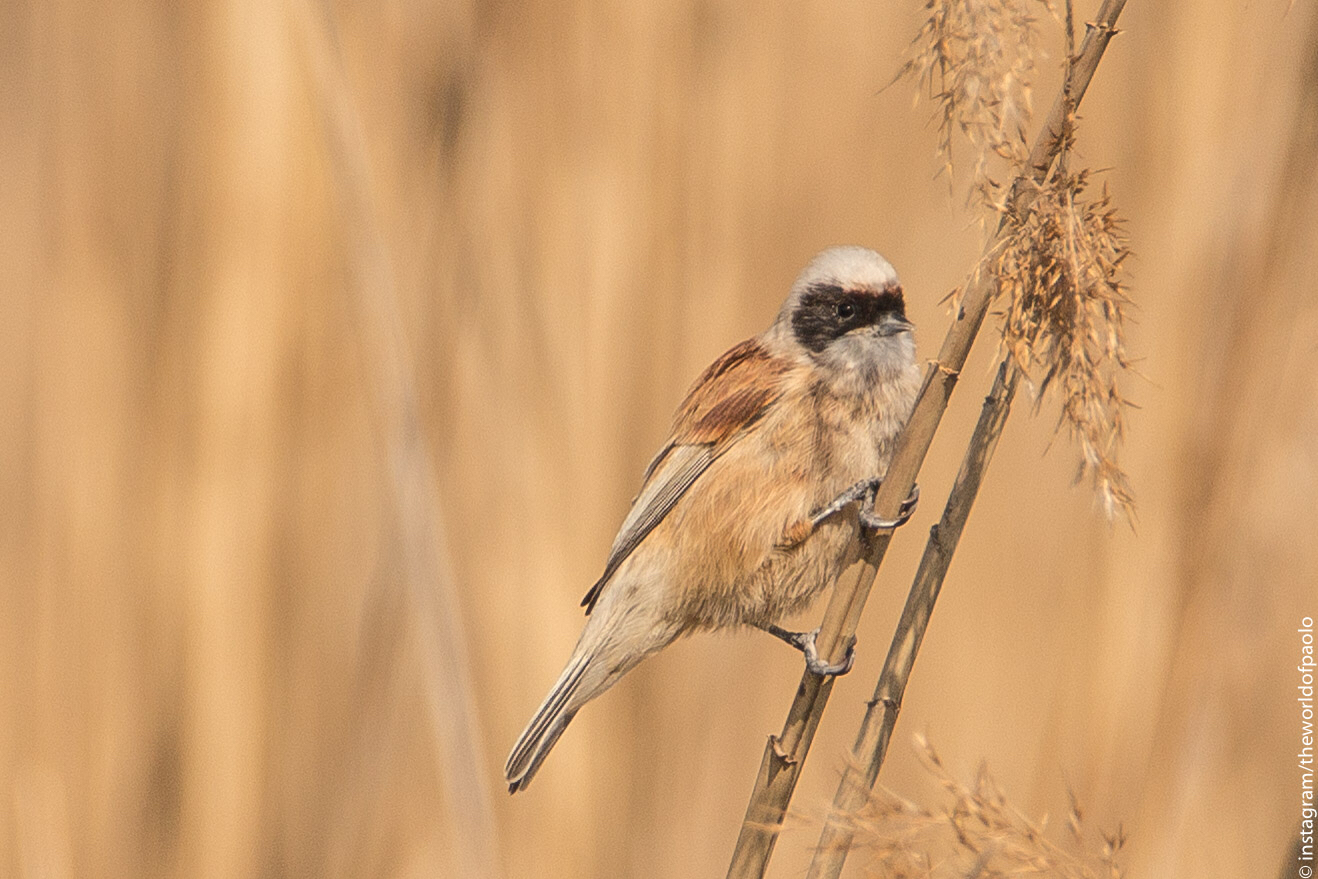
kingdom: Animalia
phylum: Chordata
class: Aves
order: Passeriformes
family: Remizidae
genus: Remiz
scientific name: Remiz pendulinus
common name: Eurasian penduline tit
